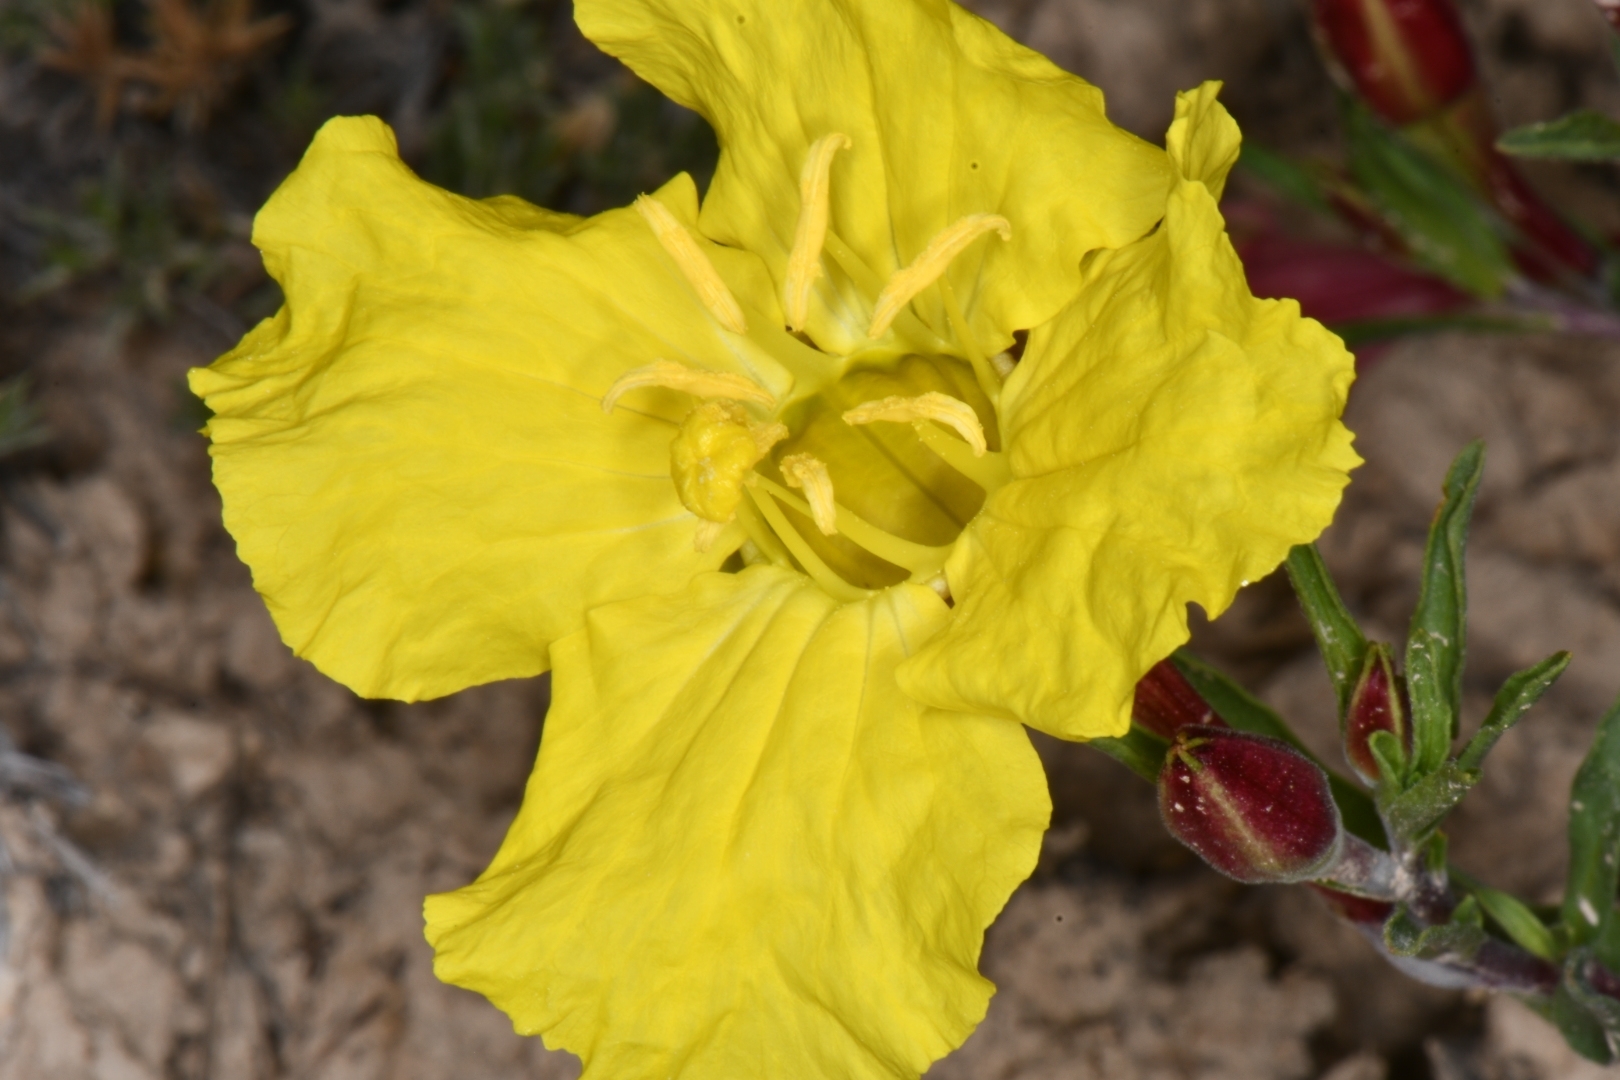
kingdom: Plantae
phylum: Tracheophyta
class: Magnoliopsida
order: Myrtales
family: Onagraceae
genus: Oenothera
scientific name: Oenothera lavandulifolia
